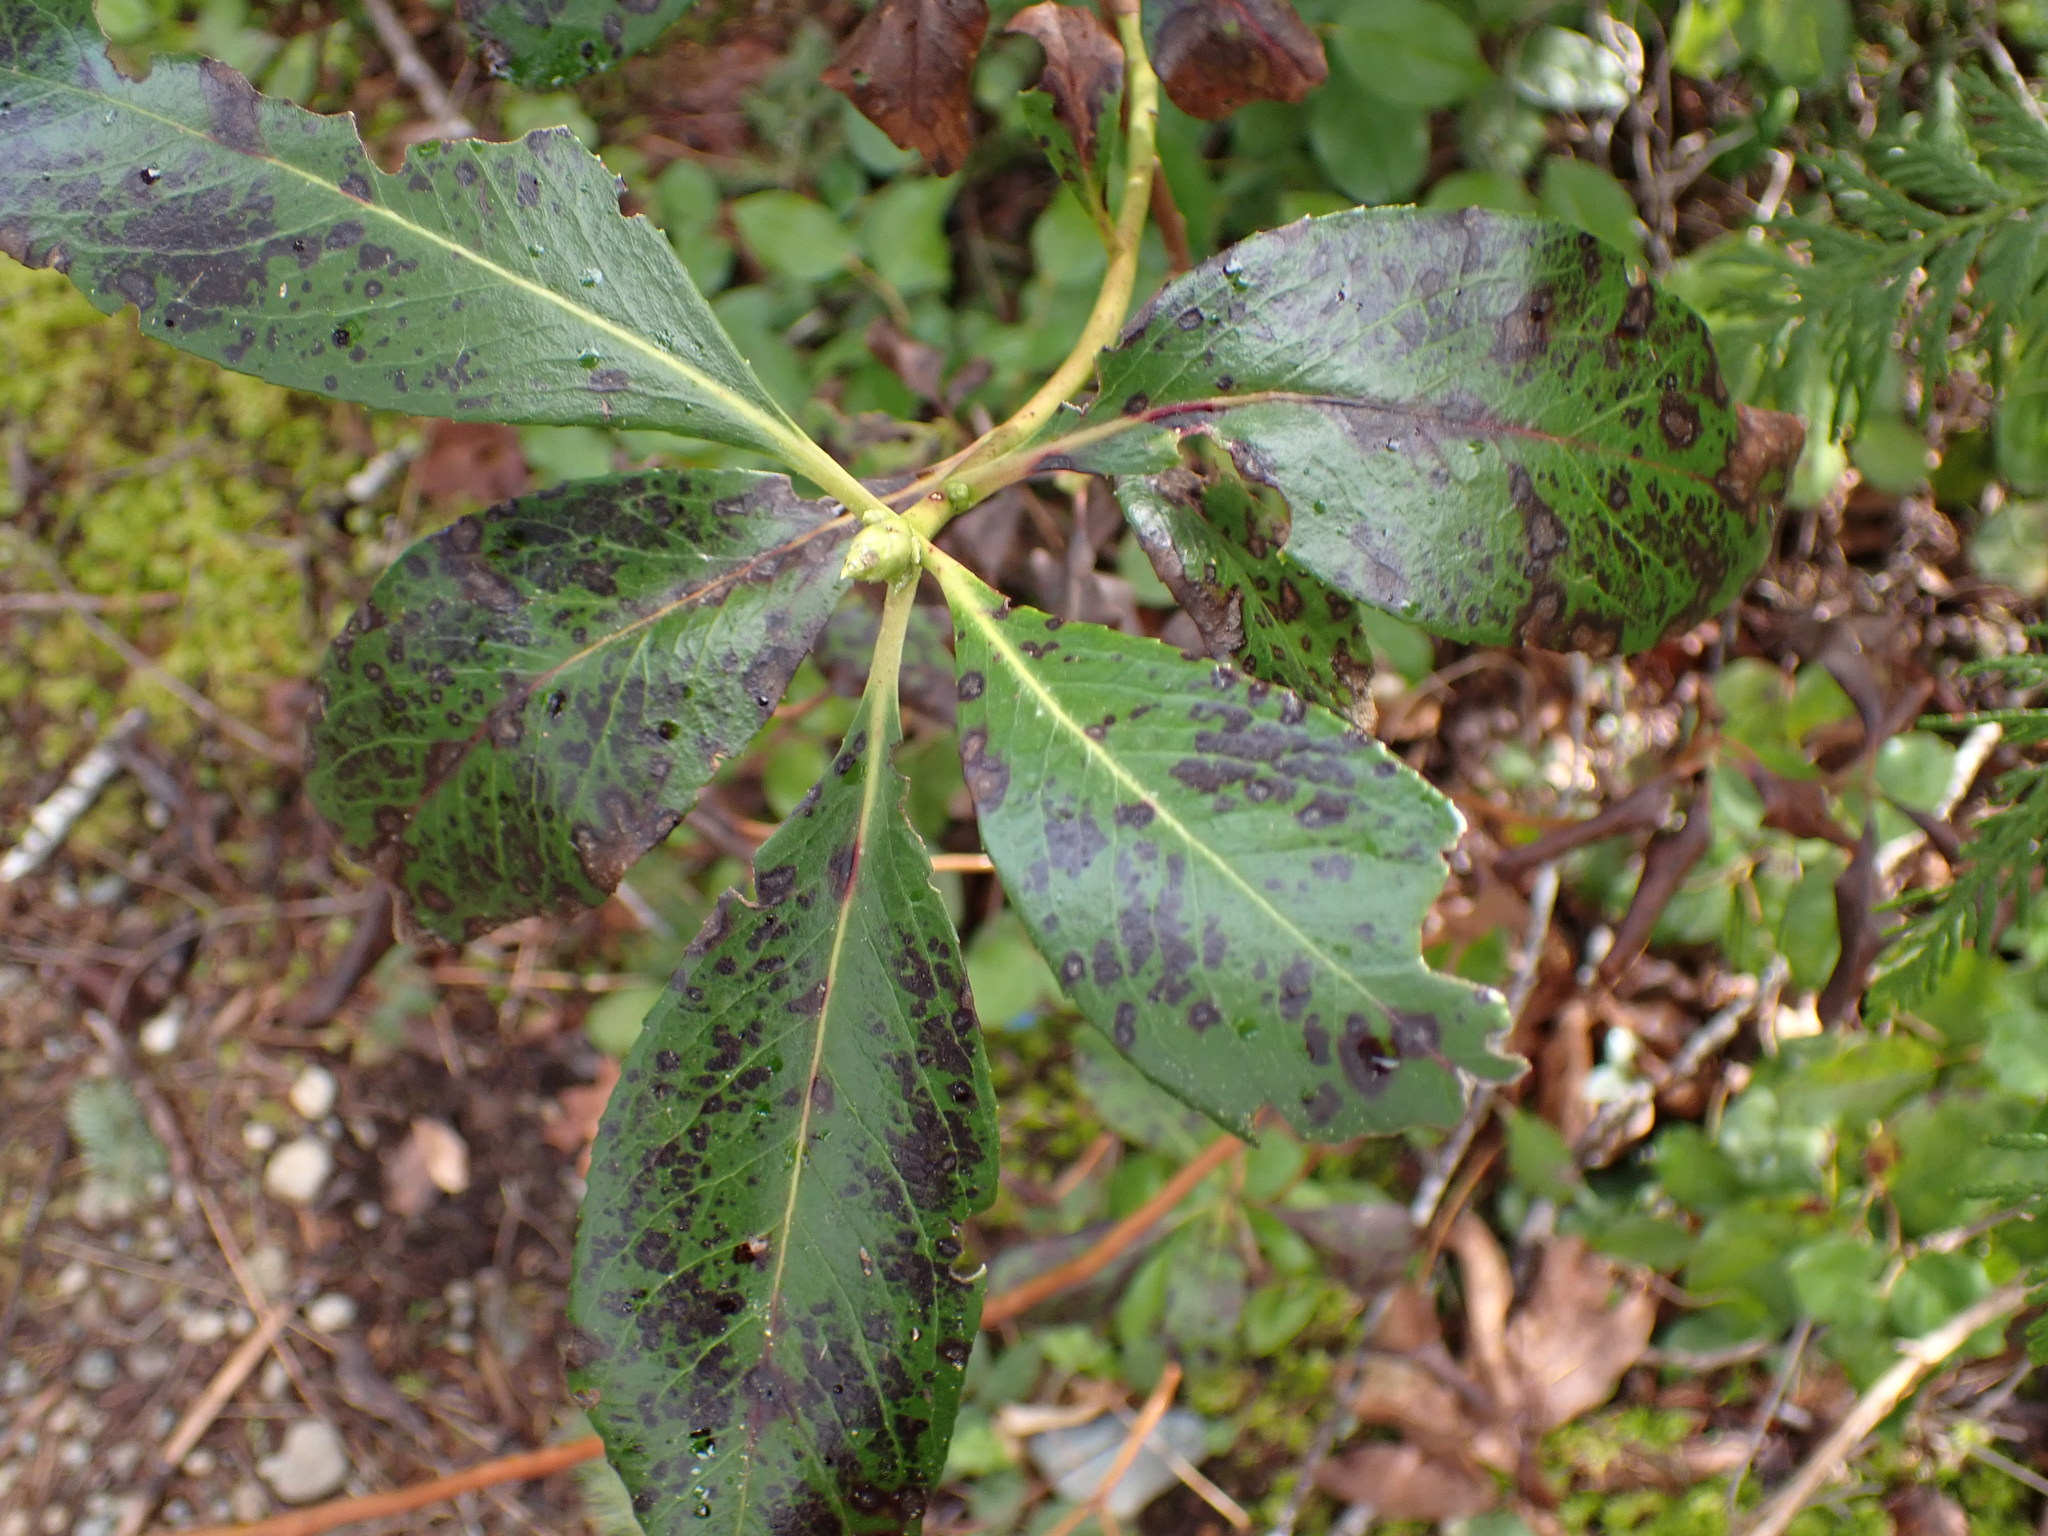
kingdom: Plantae
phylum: Tracheophyta
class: Magnoliopsida
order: Ericales
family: Ericaceae
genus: Arbutus
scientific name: Arbutus menziesii
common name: Pacific madrone
